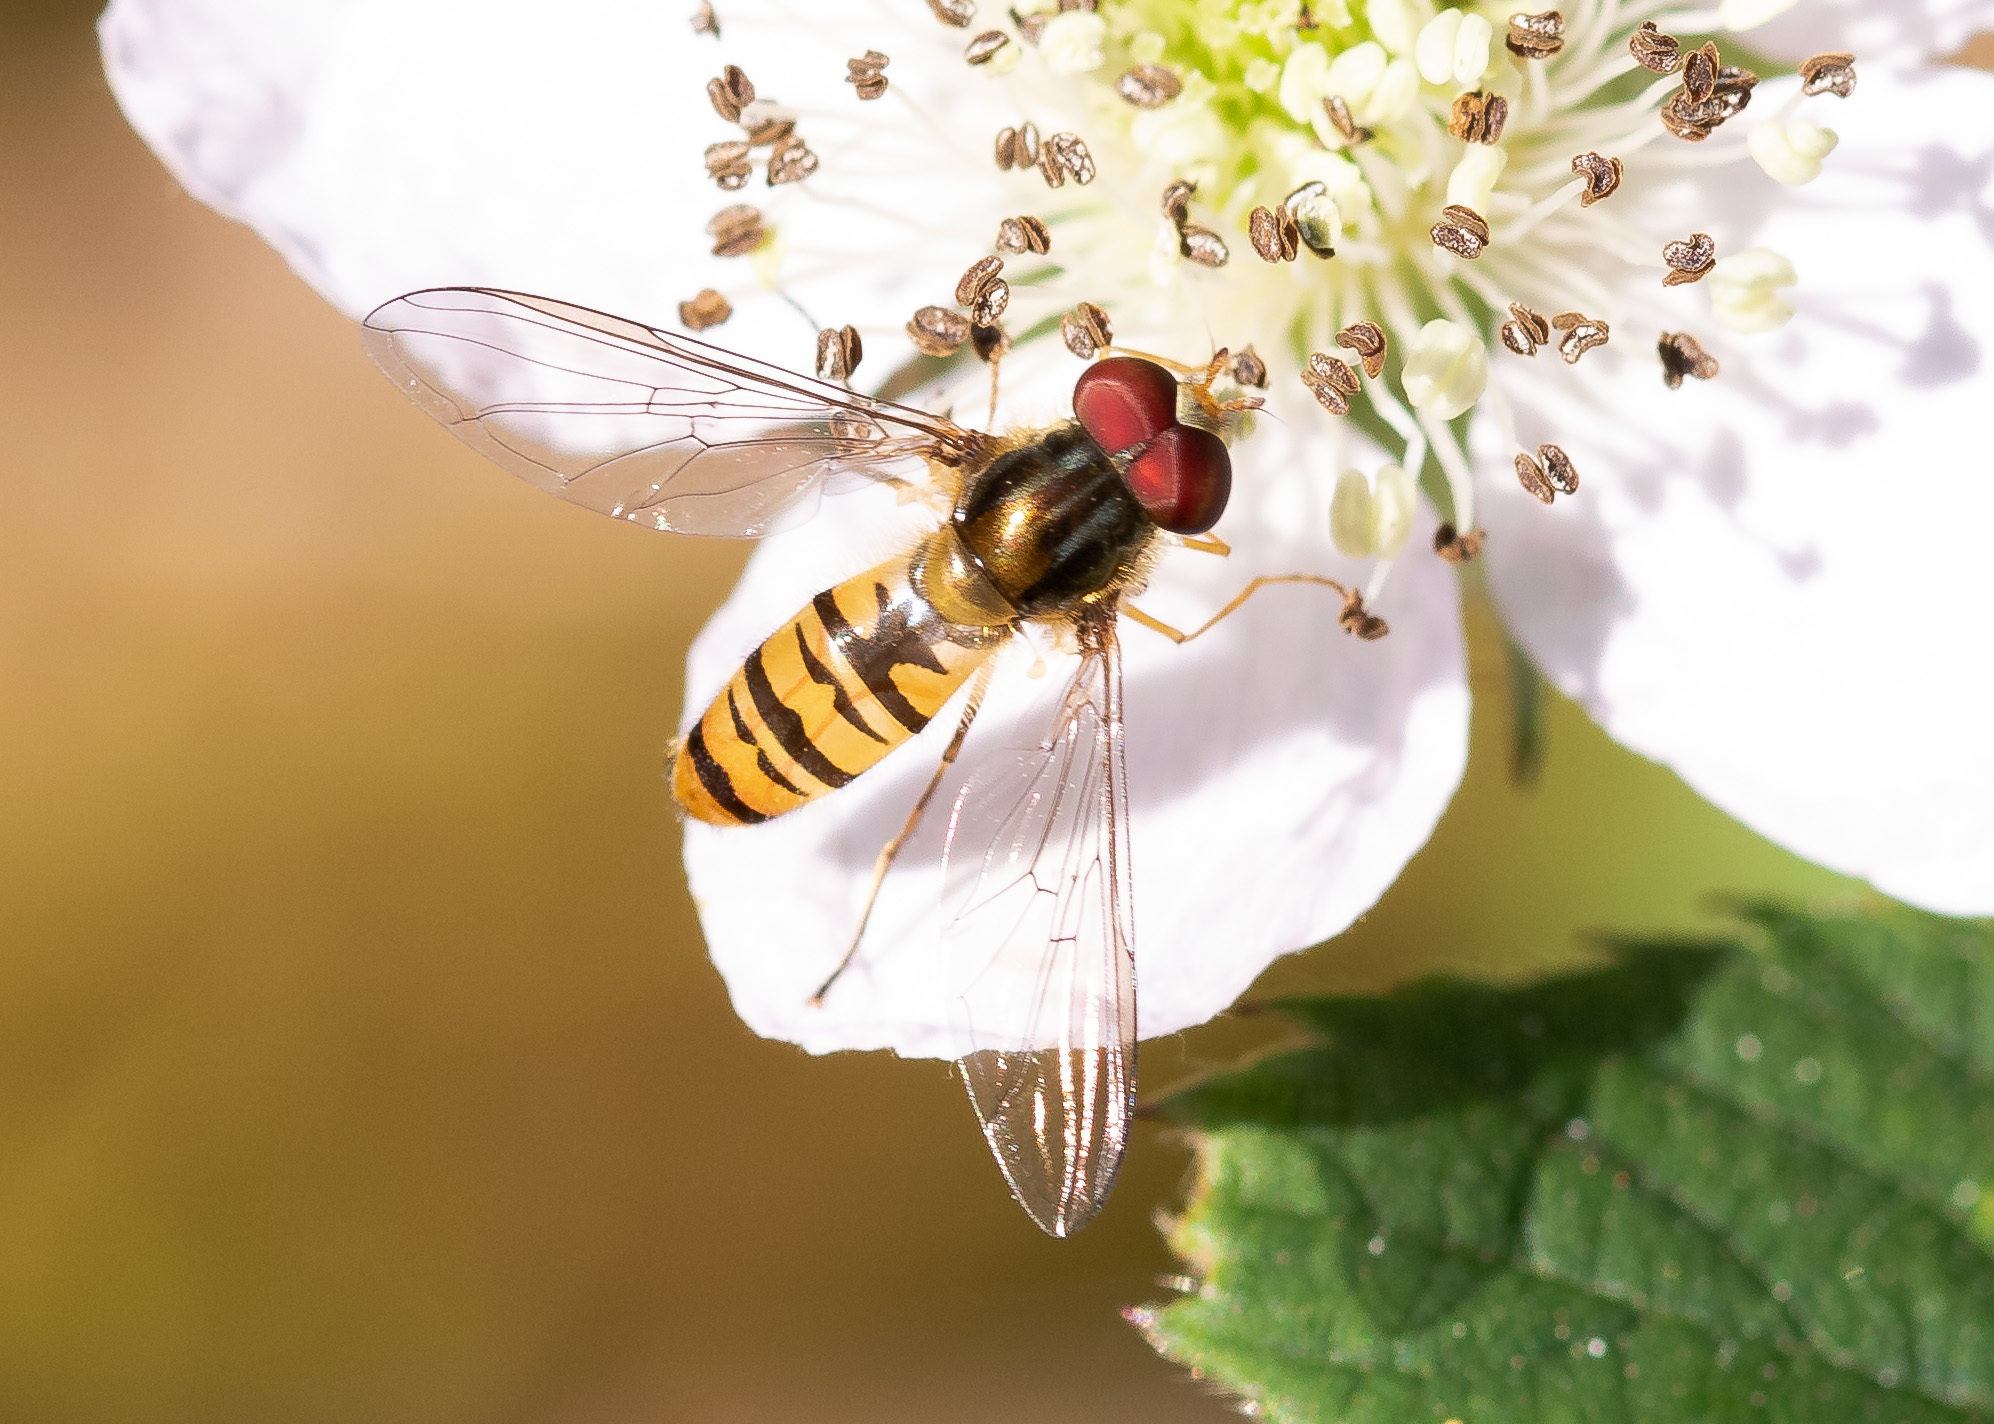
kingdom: Animalia
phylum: Arthropoda
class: Insecta
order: Diptera
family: Syrphidae
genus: Episyrphus
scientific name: Episyrphus balteatus
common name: Marmalade hoverfly
